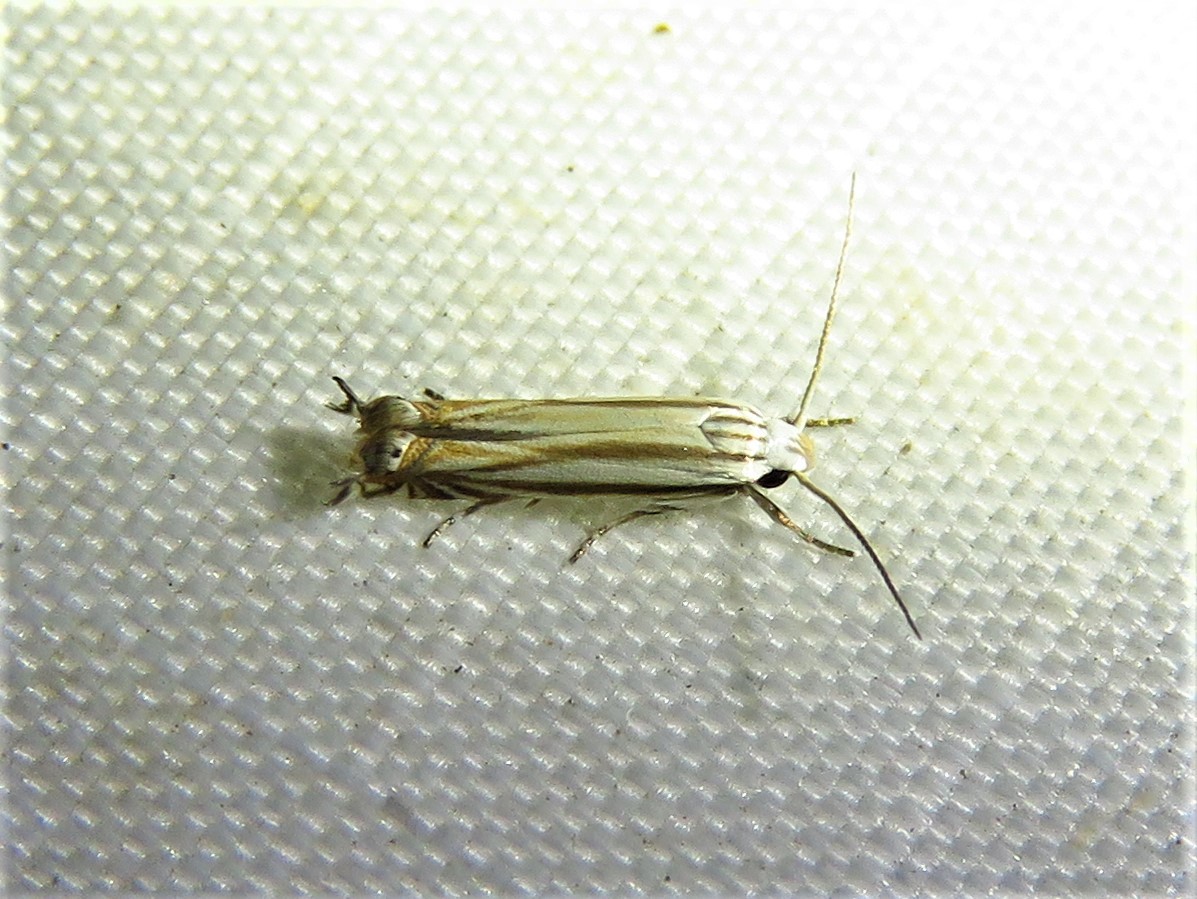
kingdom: Animalia
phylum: Arthropoda
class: Insecta
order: Lepidoptera
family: Gelechiidae
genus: Polyhymno
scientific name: Polyhymno luteostrigella
